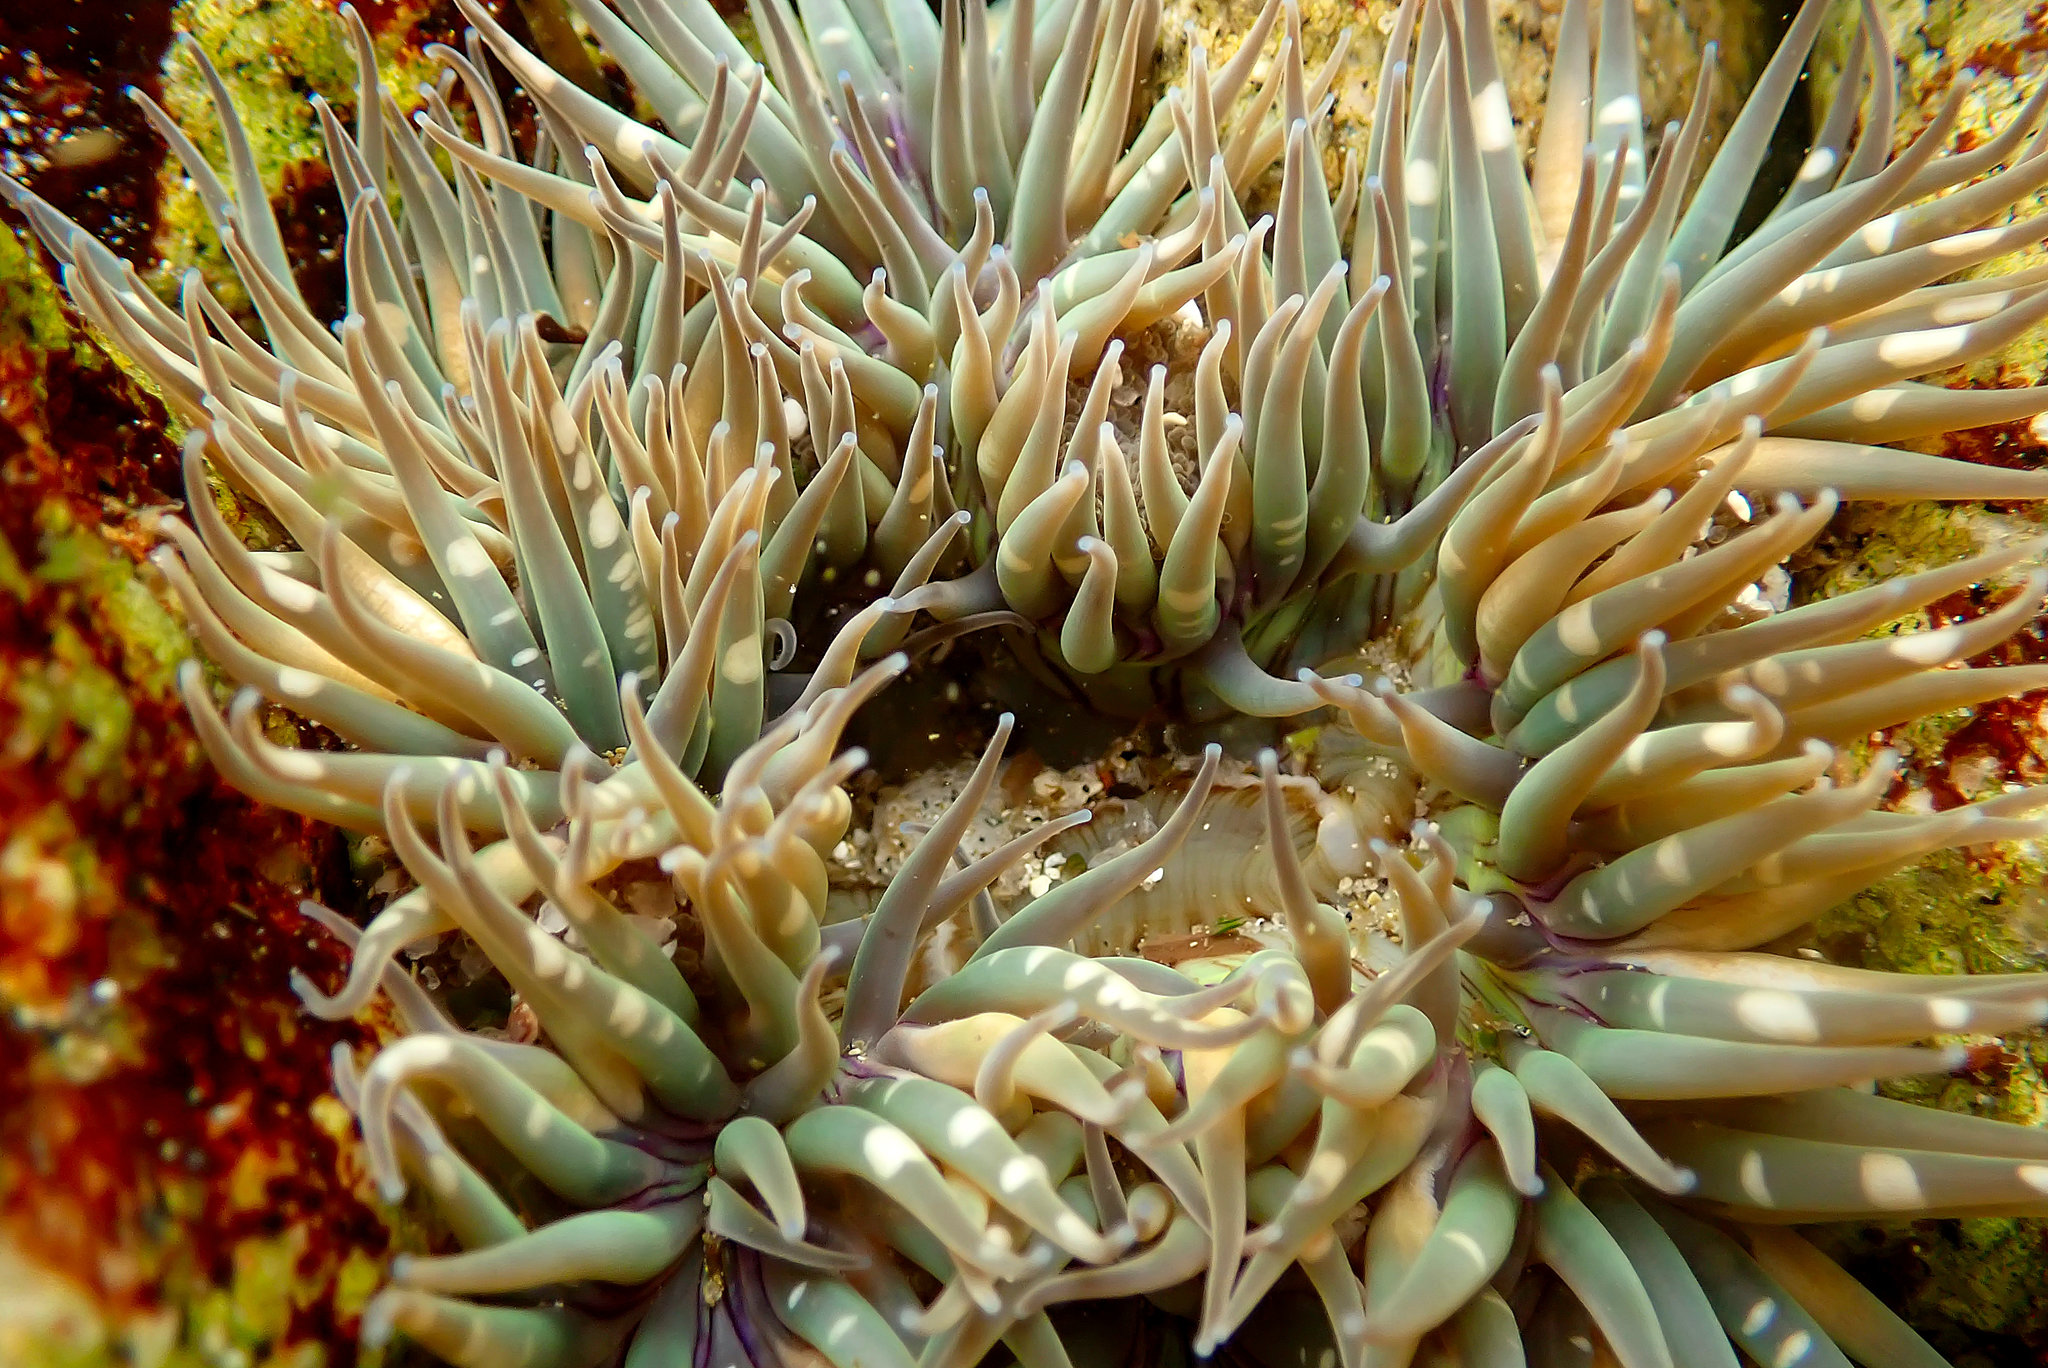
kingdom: Animalia
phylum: Cnidaria
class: Anthozoa
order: Actiniaria
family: Actiniidae
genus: Anthopleura
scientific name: Anthopleura sola
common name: Sun anemone
